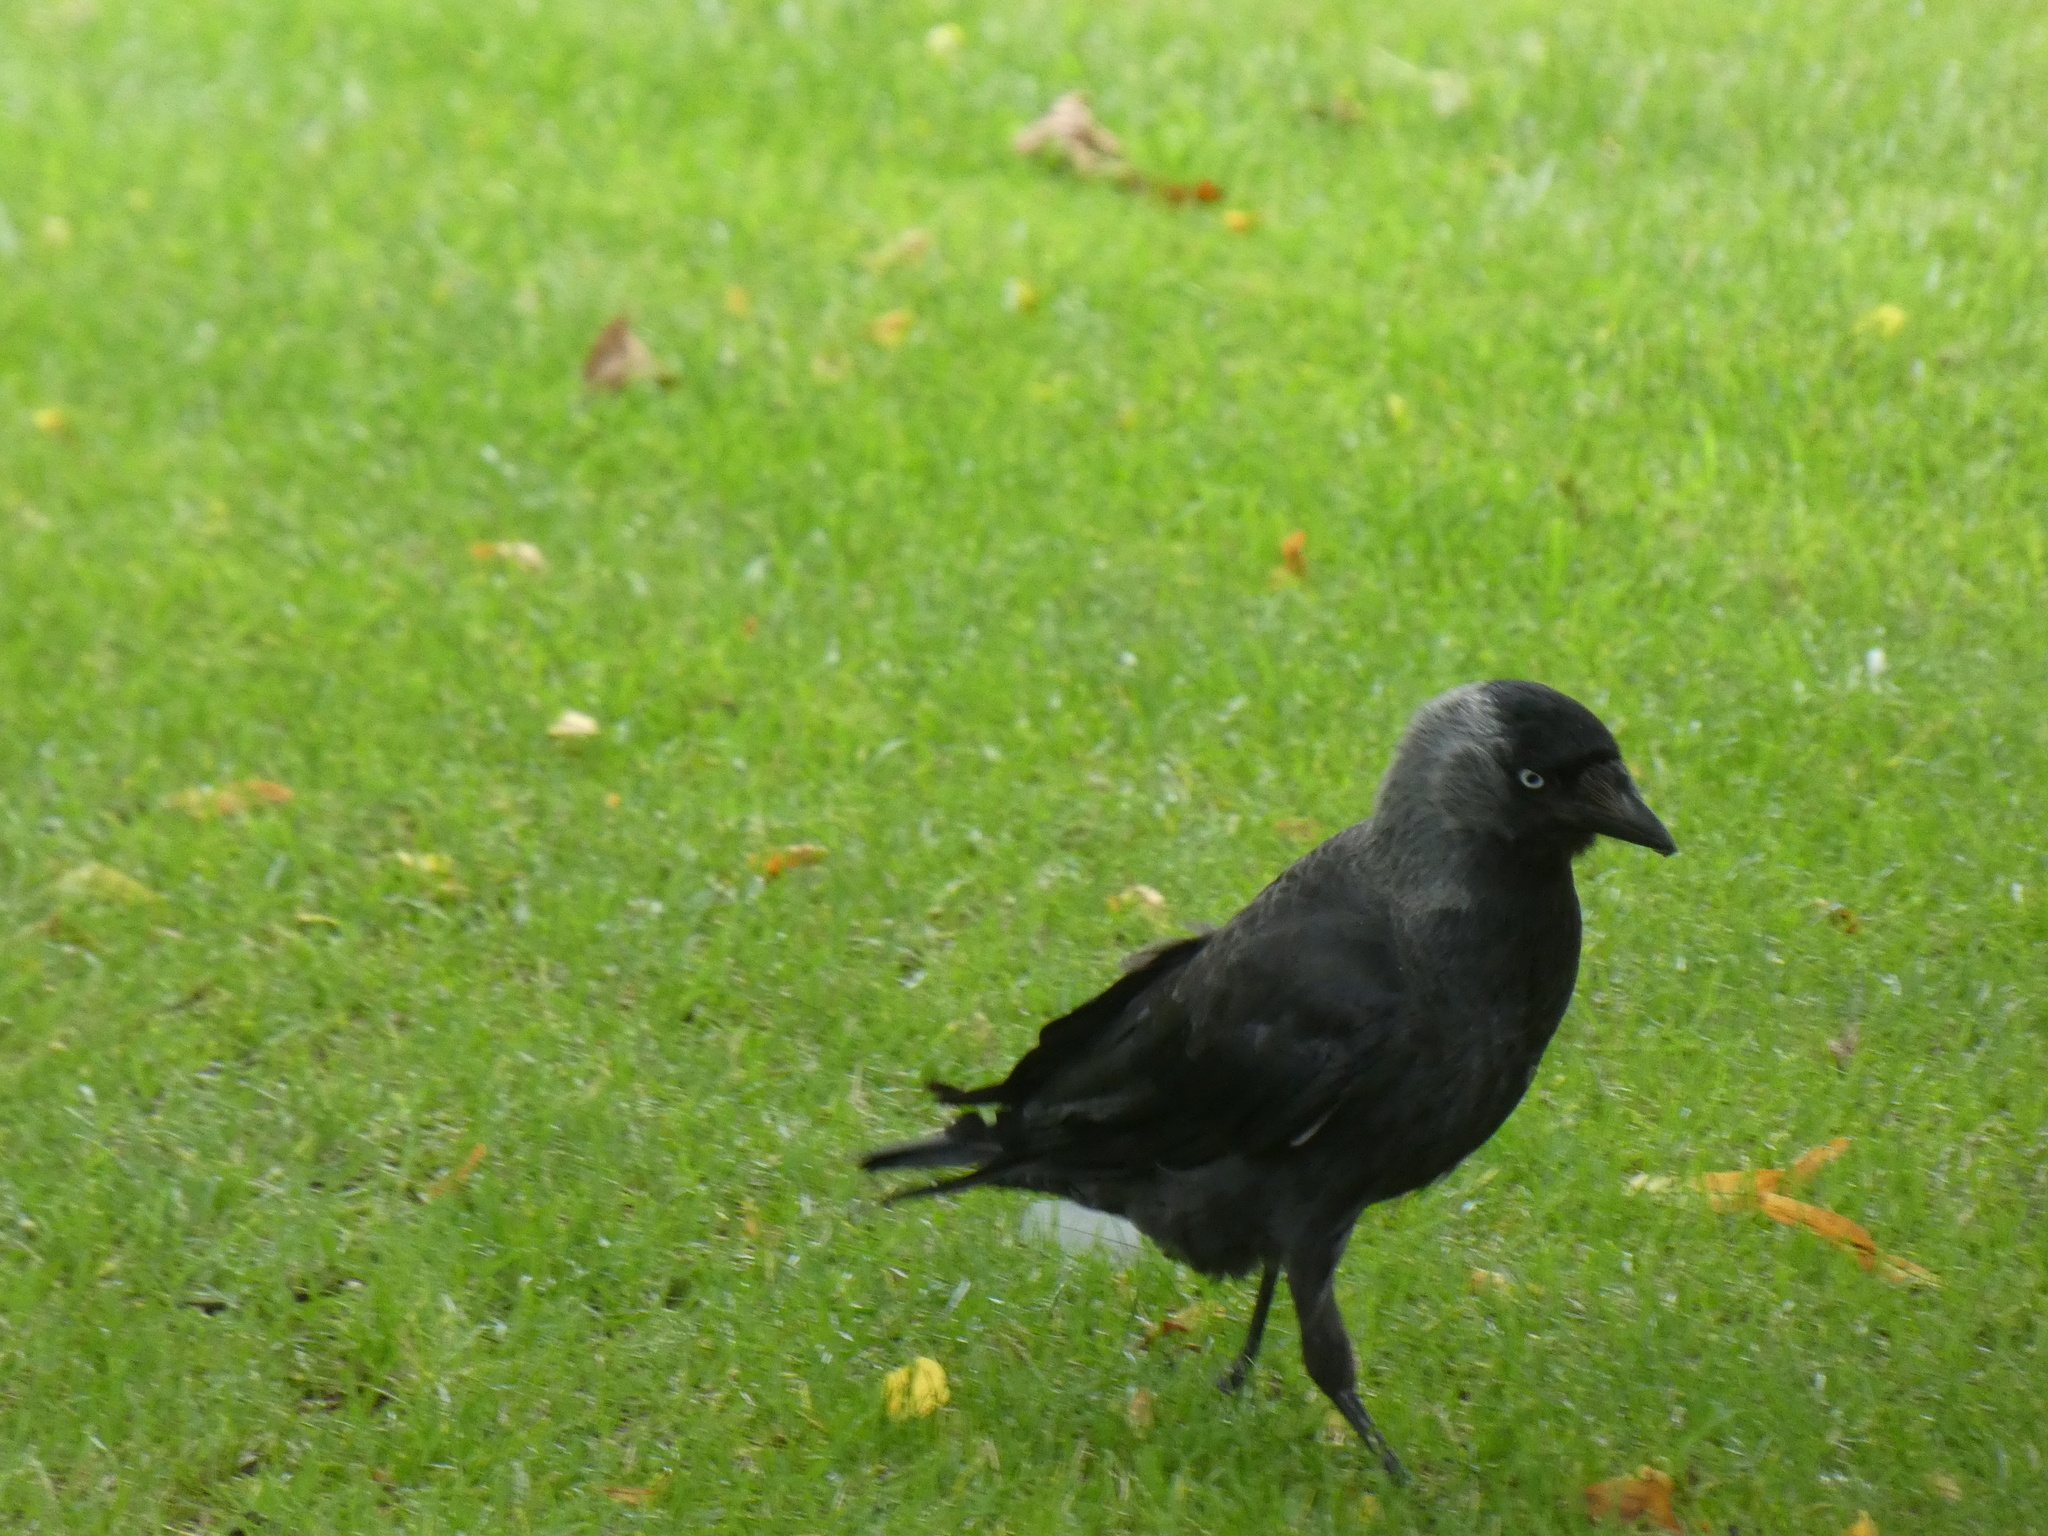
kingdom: Animalia
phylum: Chordata
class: Aves
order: Passeriformes
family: Corvidae
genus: Coloeus
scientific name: Coloeus monedula
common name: Western jackdaw
